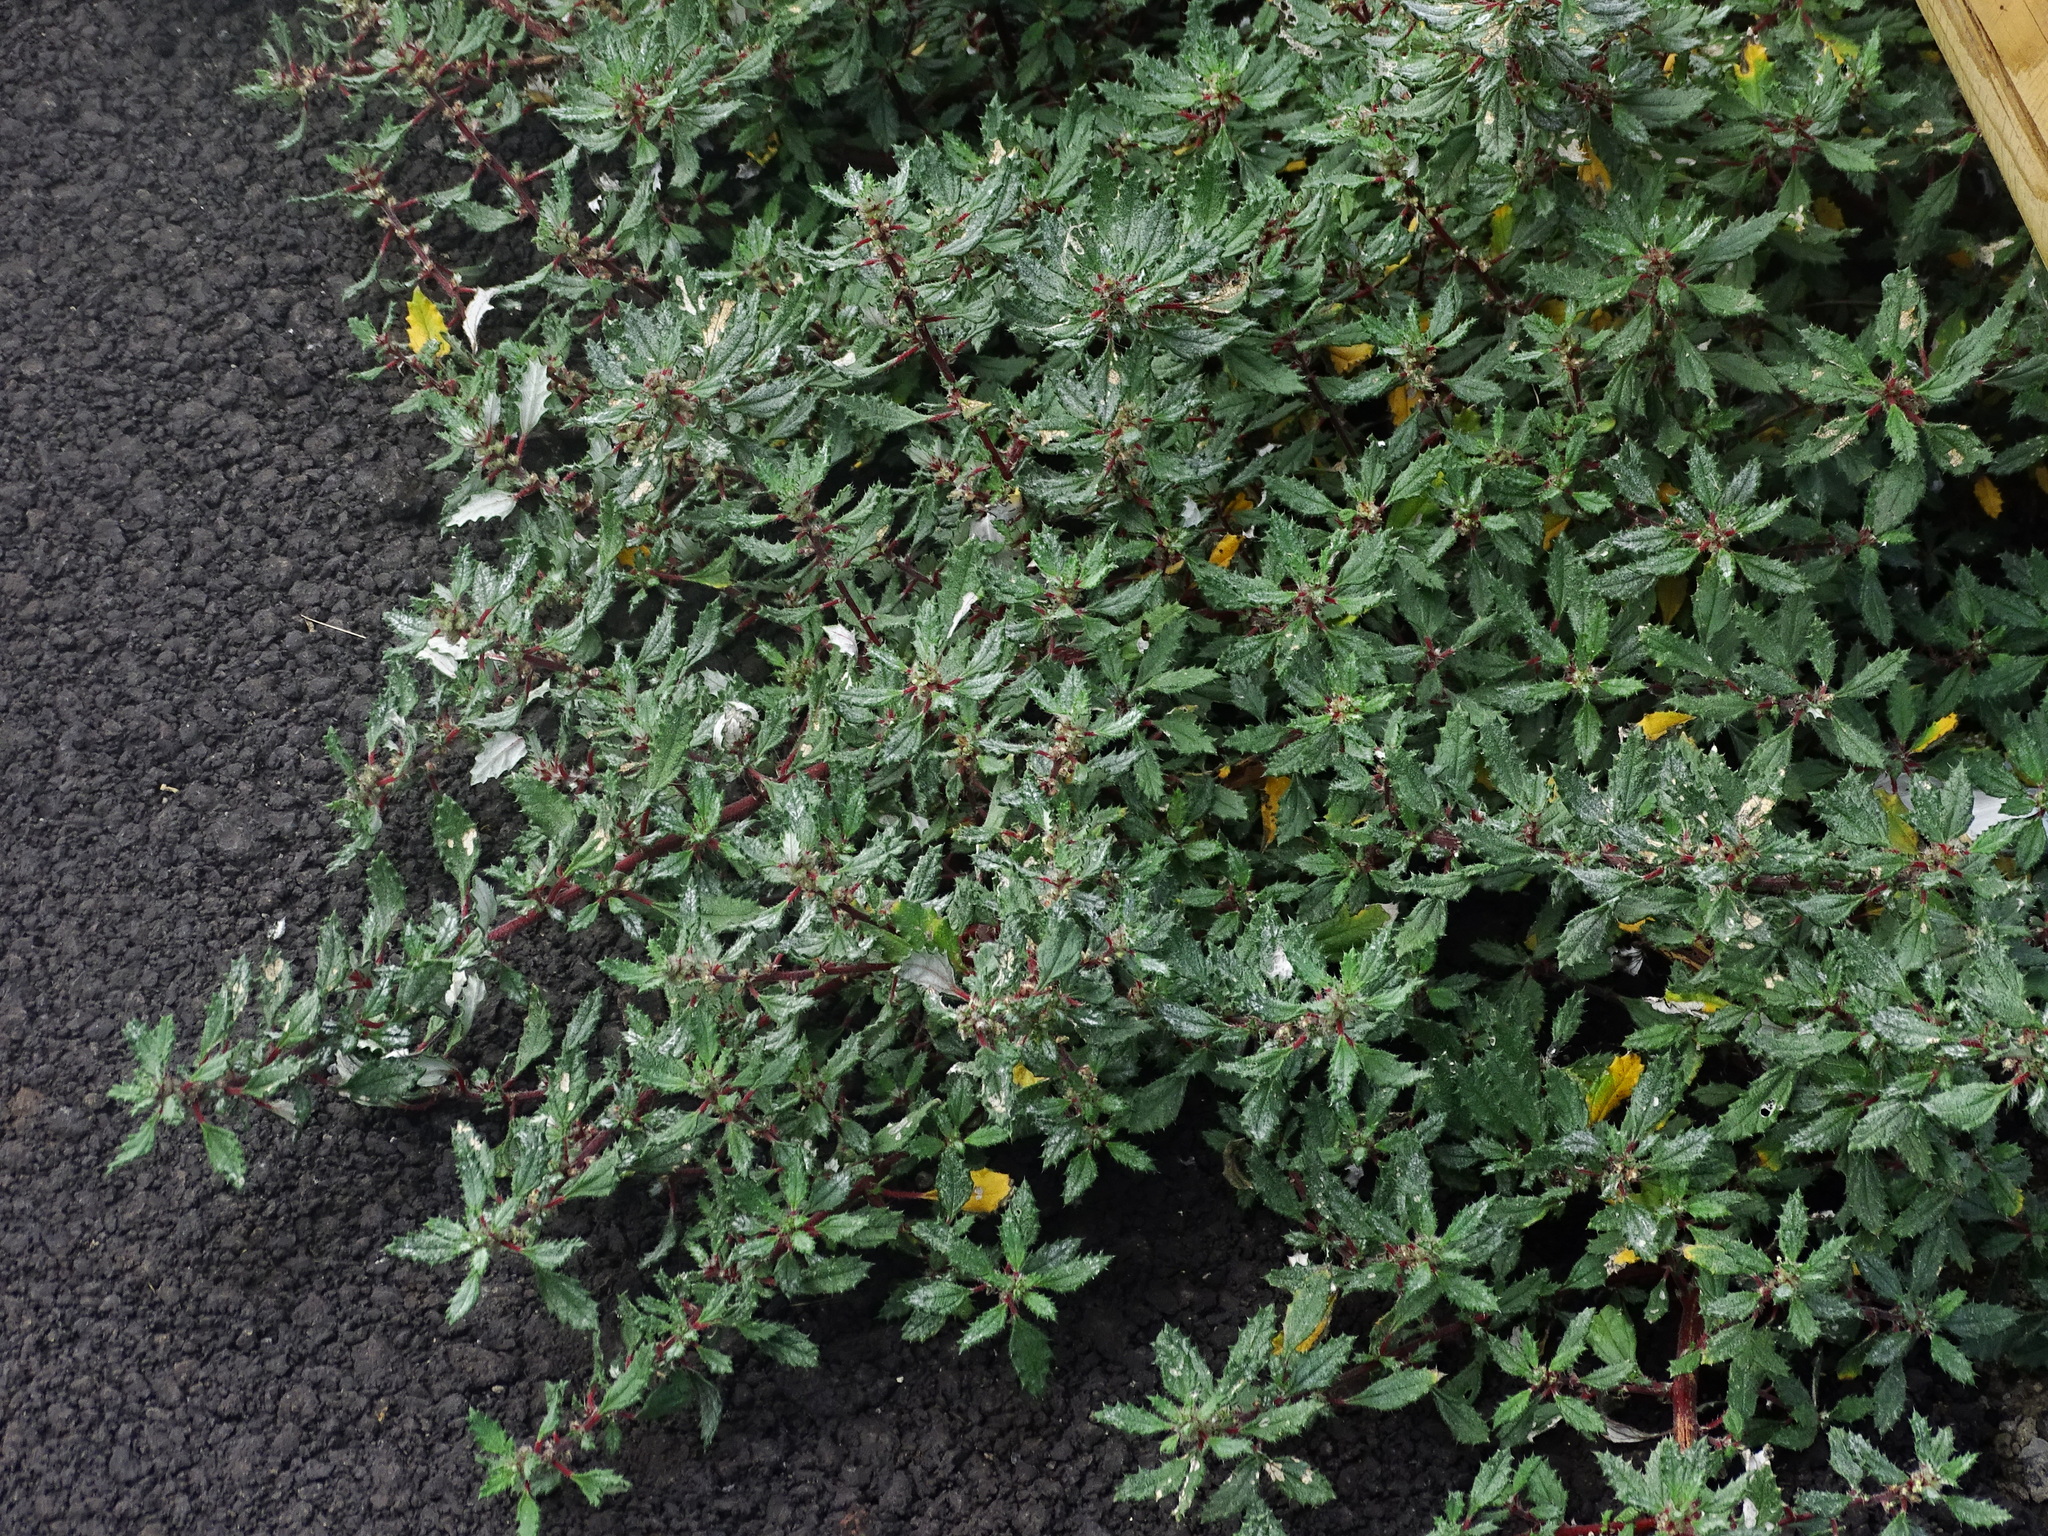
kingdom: Plantae
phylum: Tracheophyta
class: Magnoliopsida
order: Rosales
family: Urticaceae
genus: Forsskaolea
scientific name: Forsskaolea angustifolia
